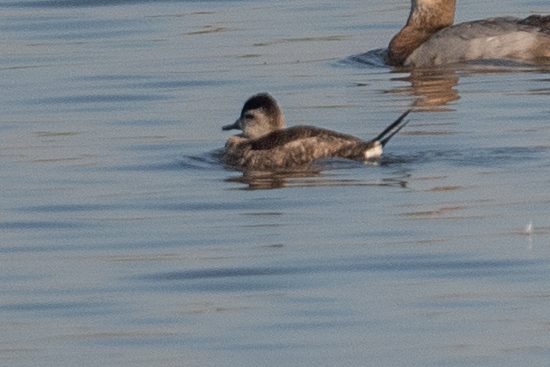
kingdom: Animalia
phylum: Chordata
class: Aves
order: Anseriformes
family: Anatidae
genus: Oxyura
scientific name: Oxyura jamaicensis
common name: Ruddy duck
